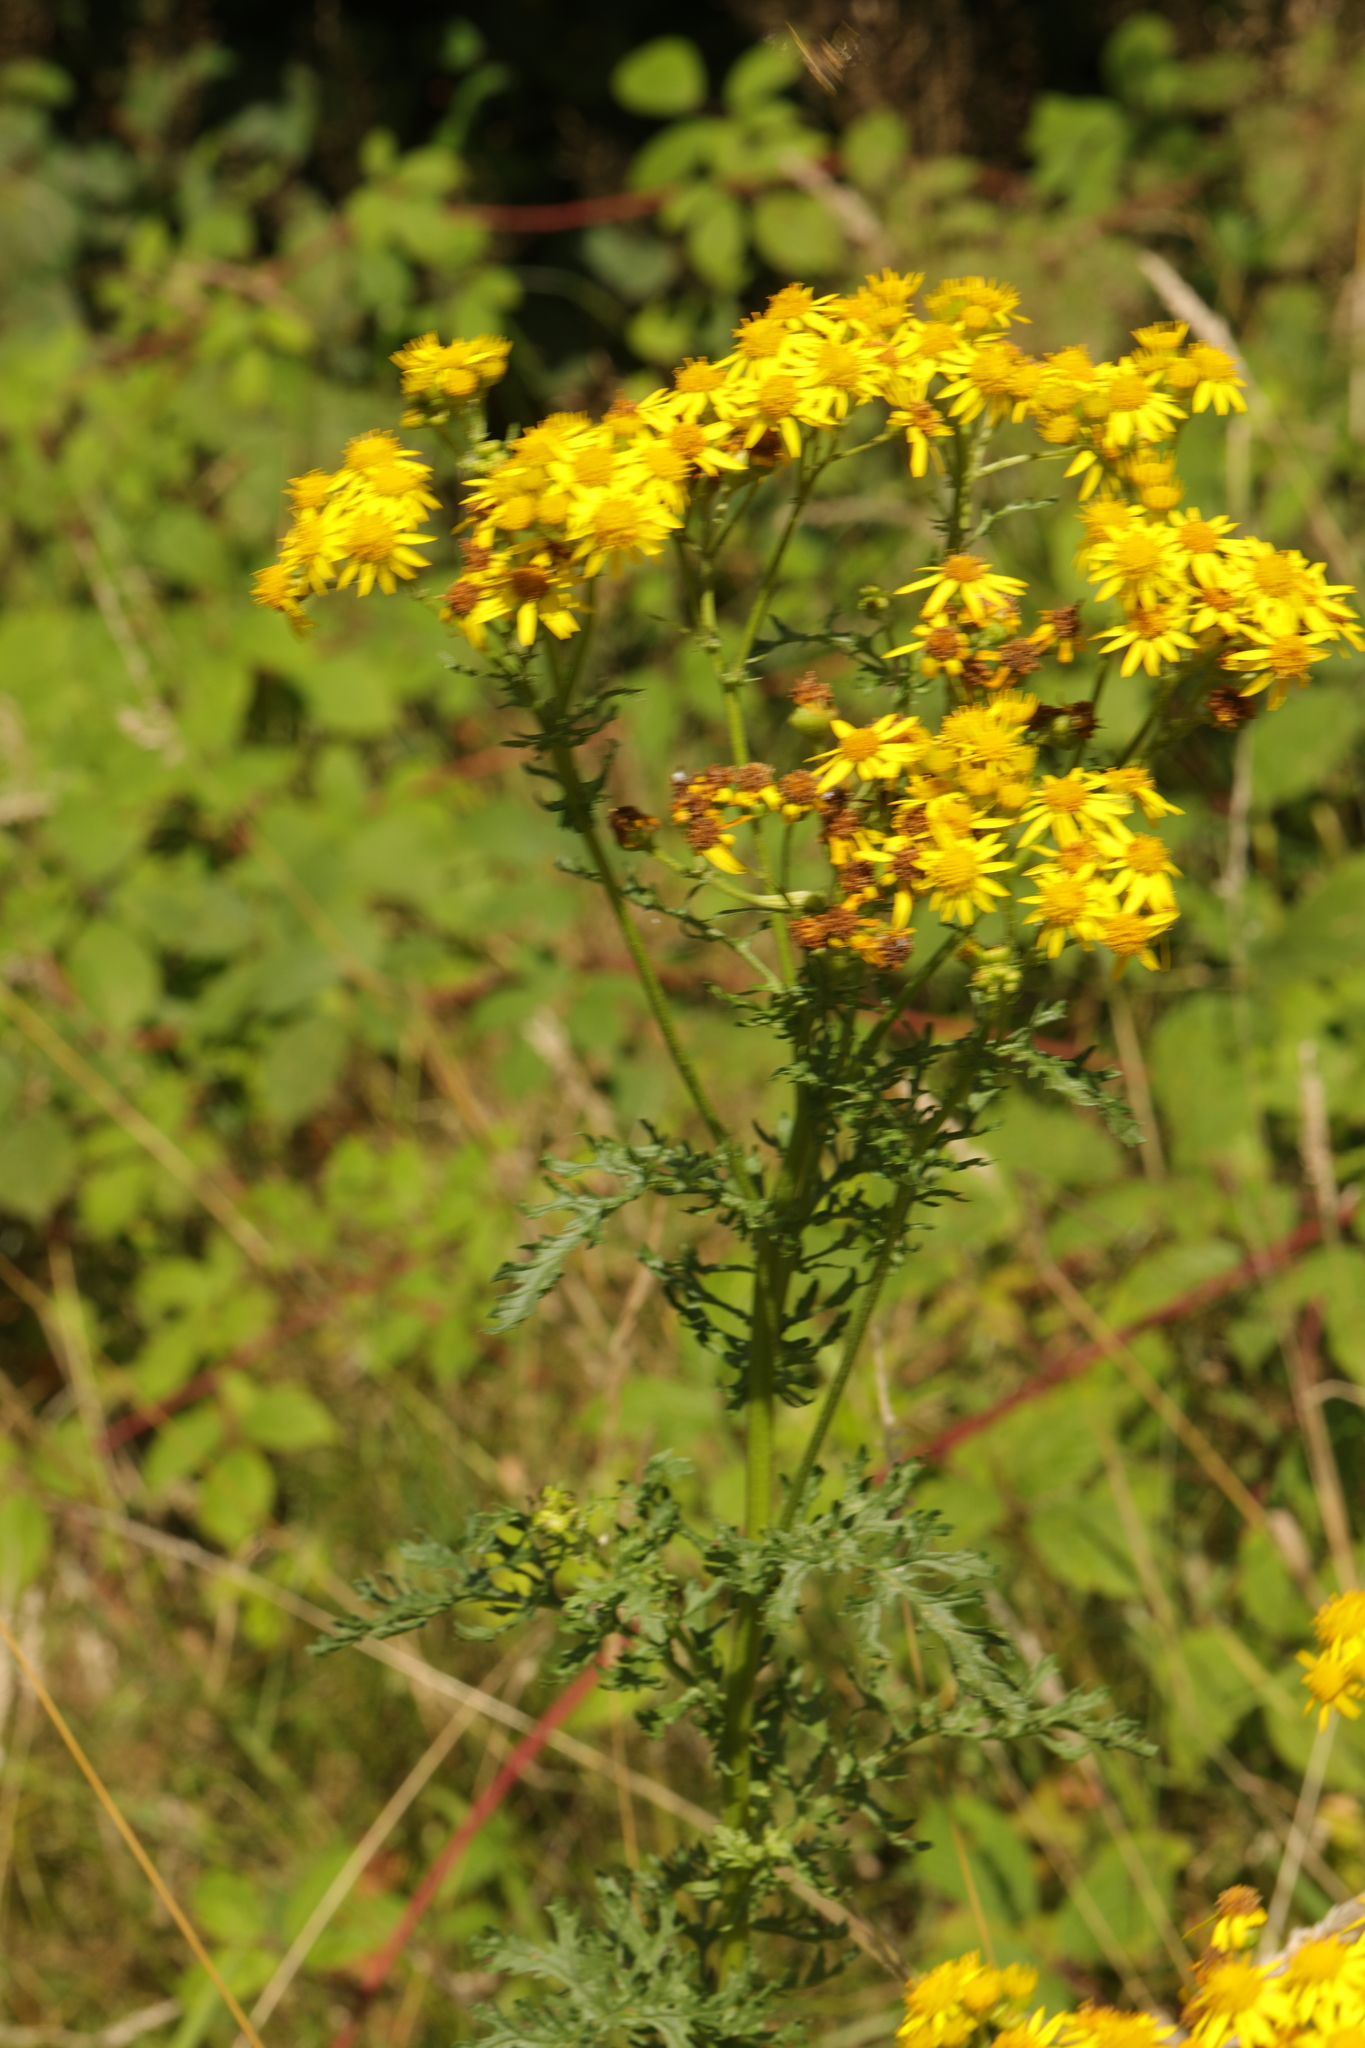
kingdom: Plantae
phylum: Tracheophyta
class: Magnoliopsida
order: Asterales
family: Asteraceae
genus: Jacobaea
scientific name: Jacobaea vulgaris
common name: Stinking willie
